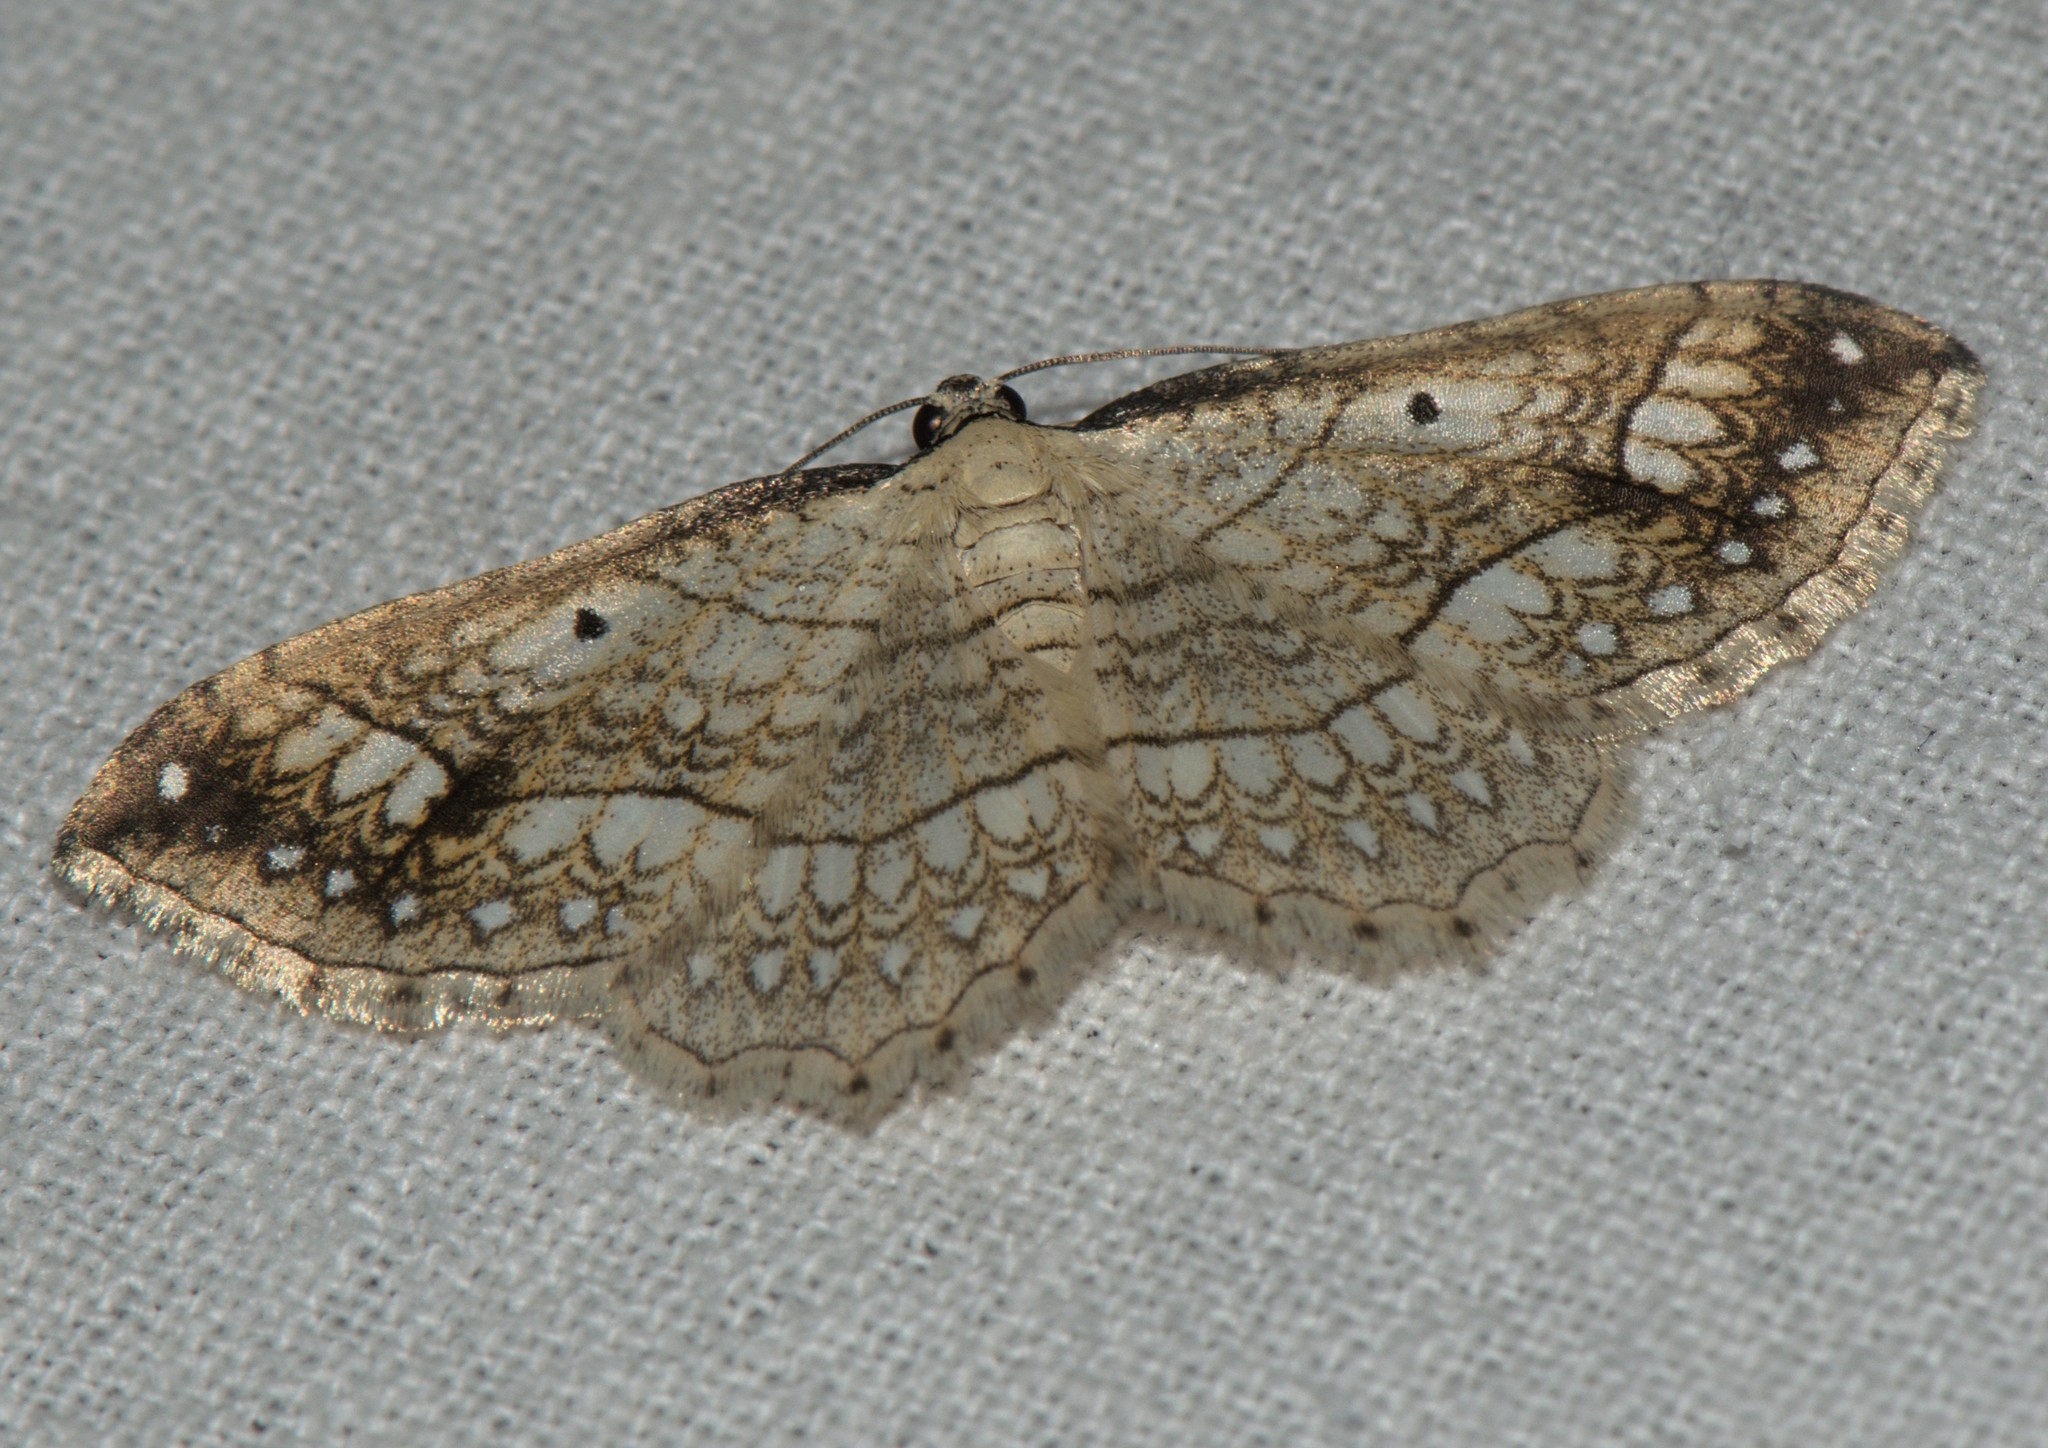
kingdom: Animalia
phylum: Arthropoda
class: Insecta
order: Lepidoptera
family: Geometridae
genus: Laciniodes
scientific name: Laciniodes plurilinearia
